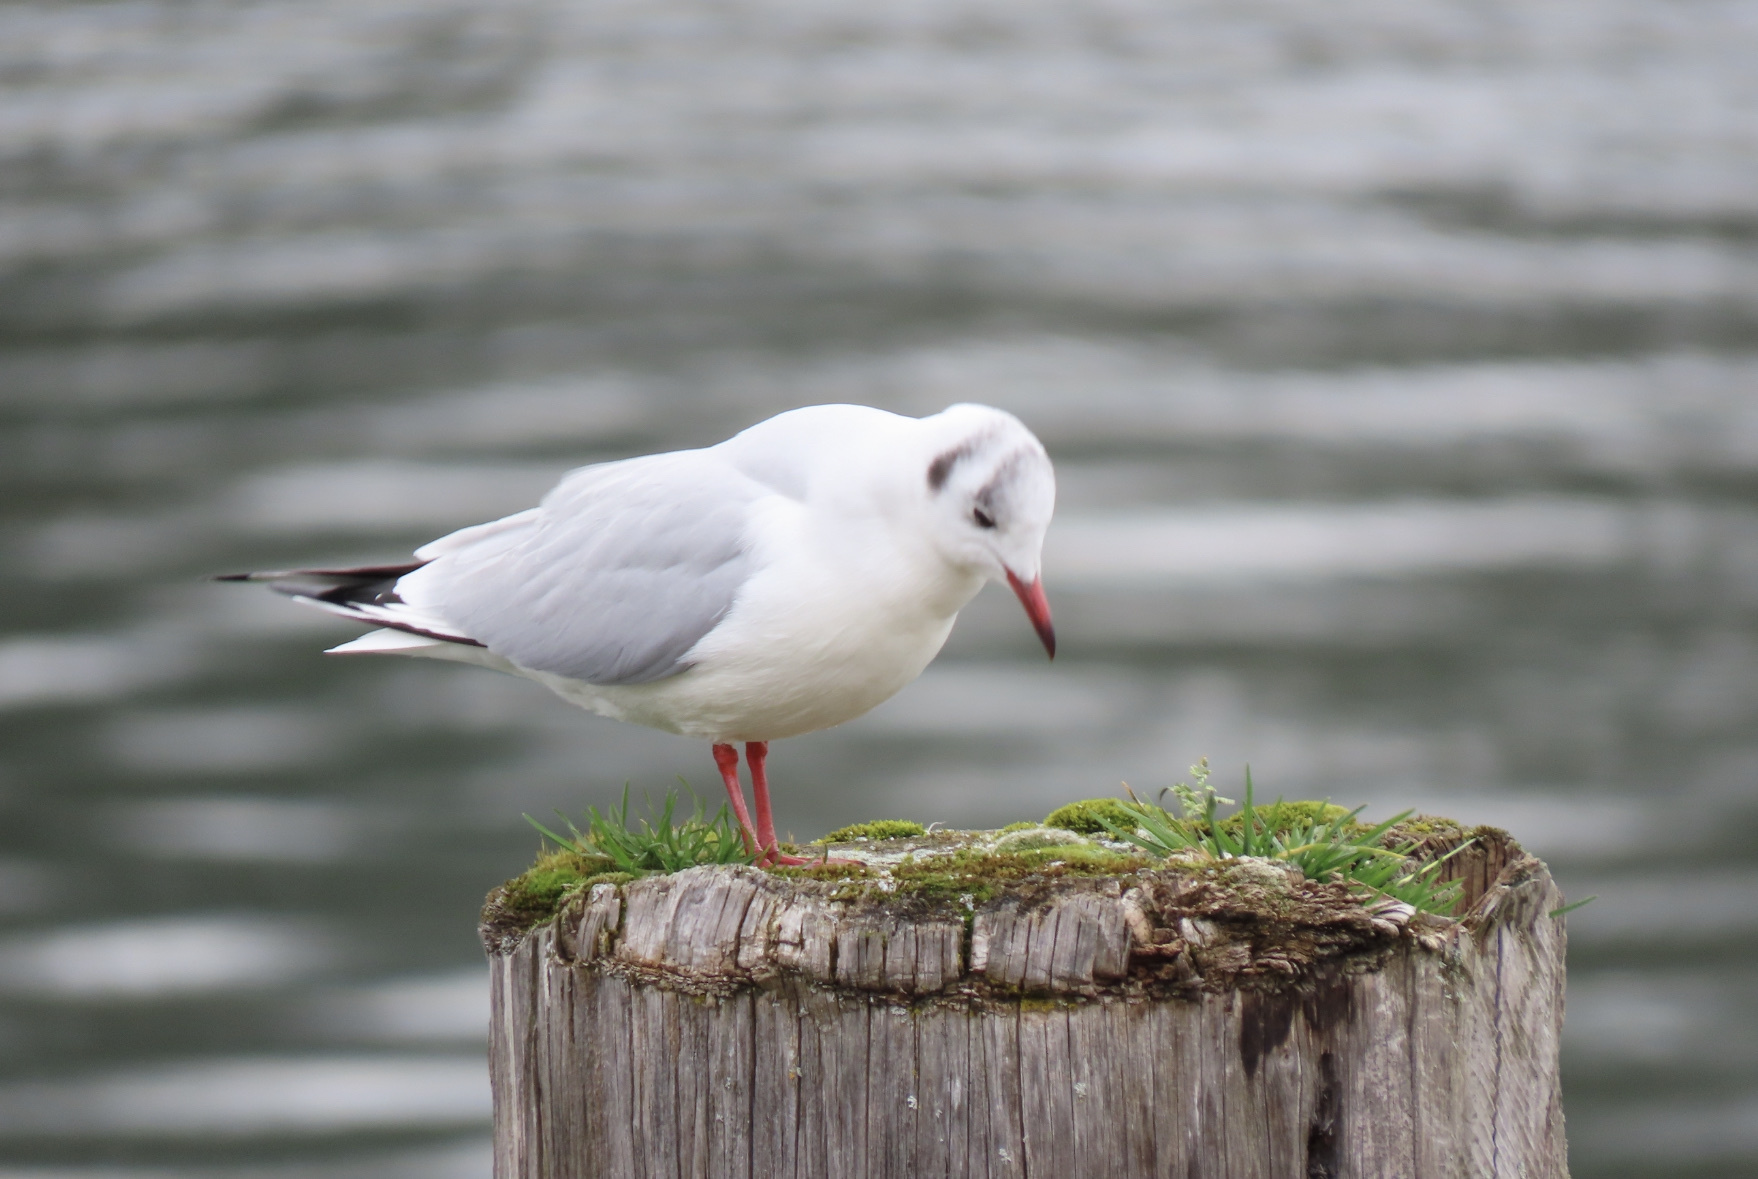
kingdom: Animalia
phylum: Chordata
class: Aves
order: Charadriiformes
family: Laridae
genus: Chroicocephalus
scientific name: Chroicocephalus ridibundus
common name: Black-headed gull
